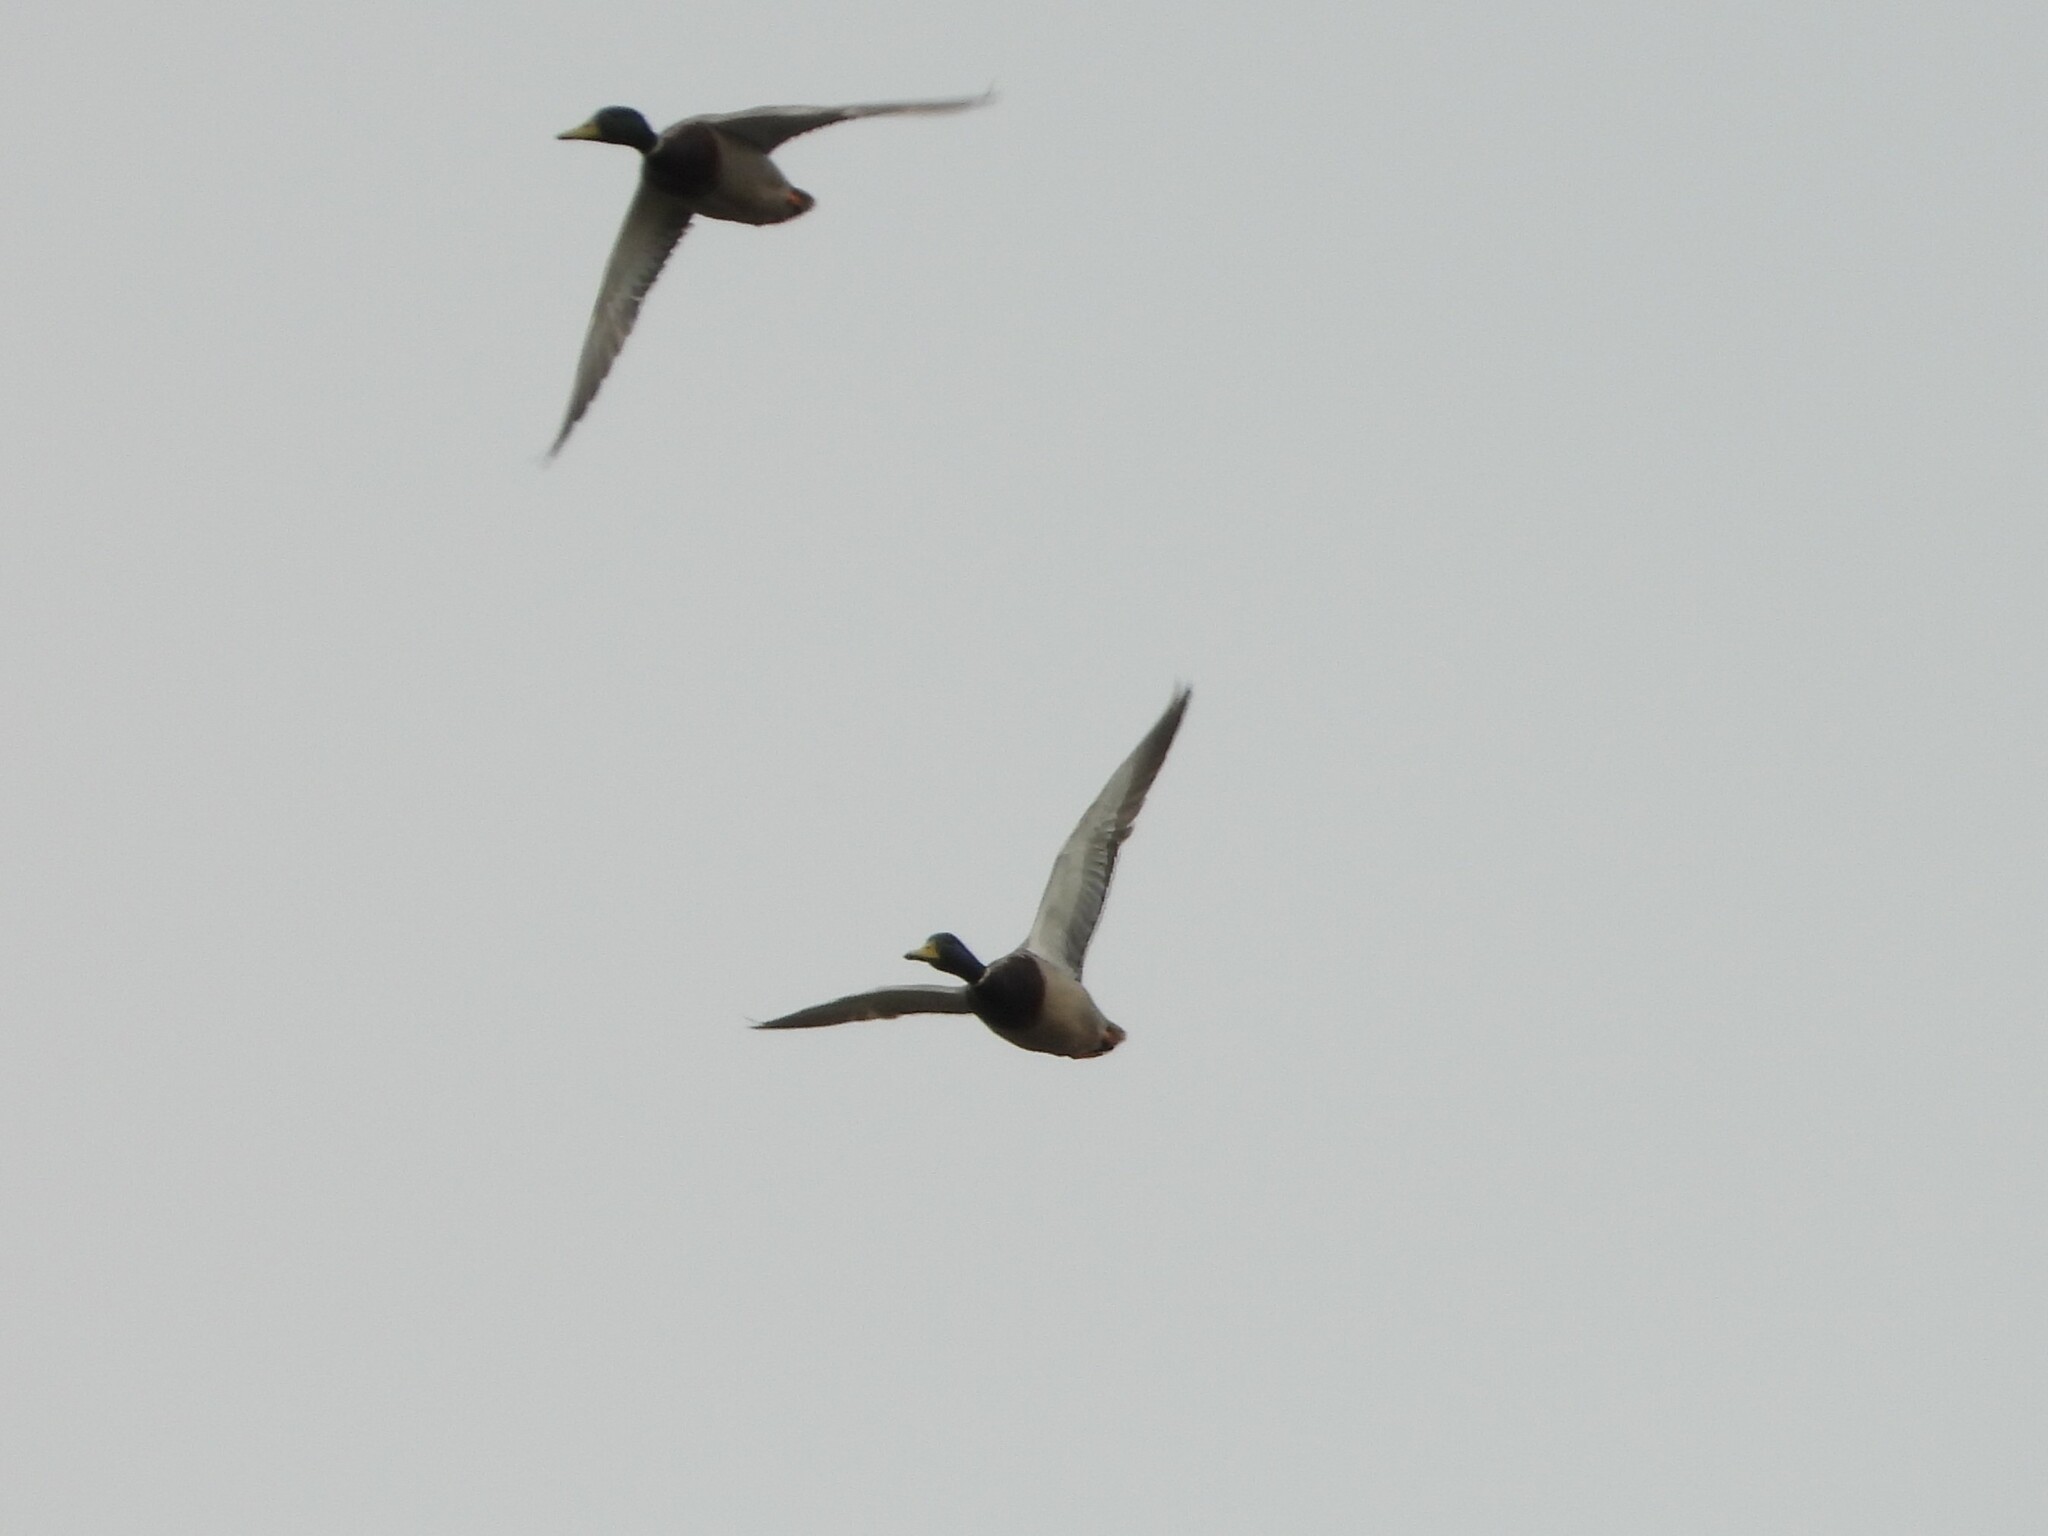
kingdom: Animalia
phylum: Chordata
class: Aves
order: Anseriformes
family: Anatidae
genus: Anas
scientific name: Anas platyrhynchos
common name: Mallard
